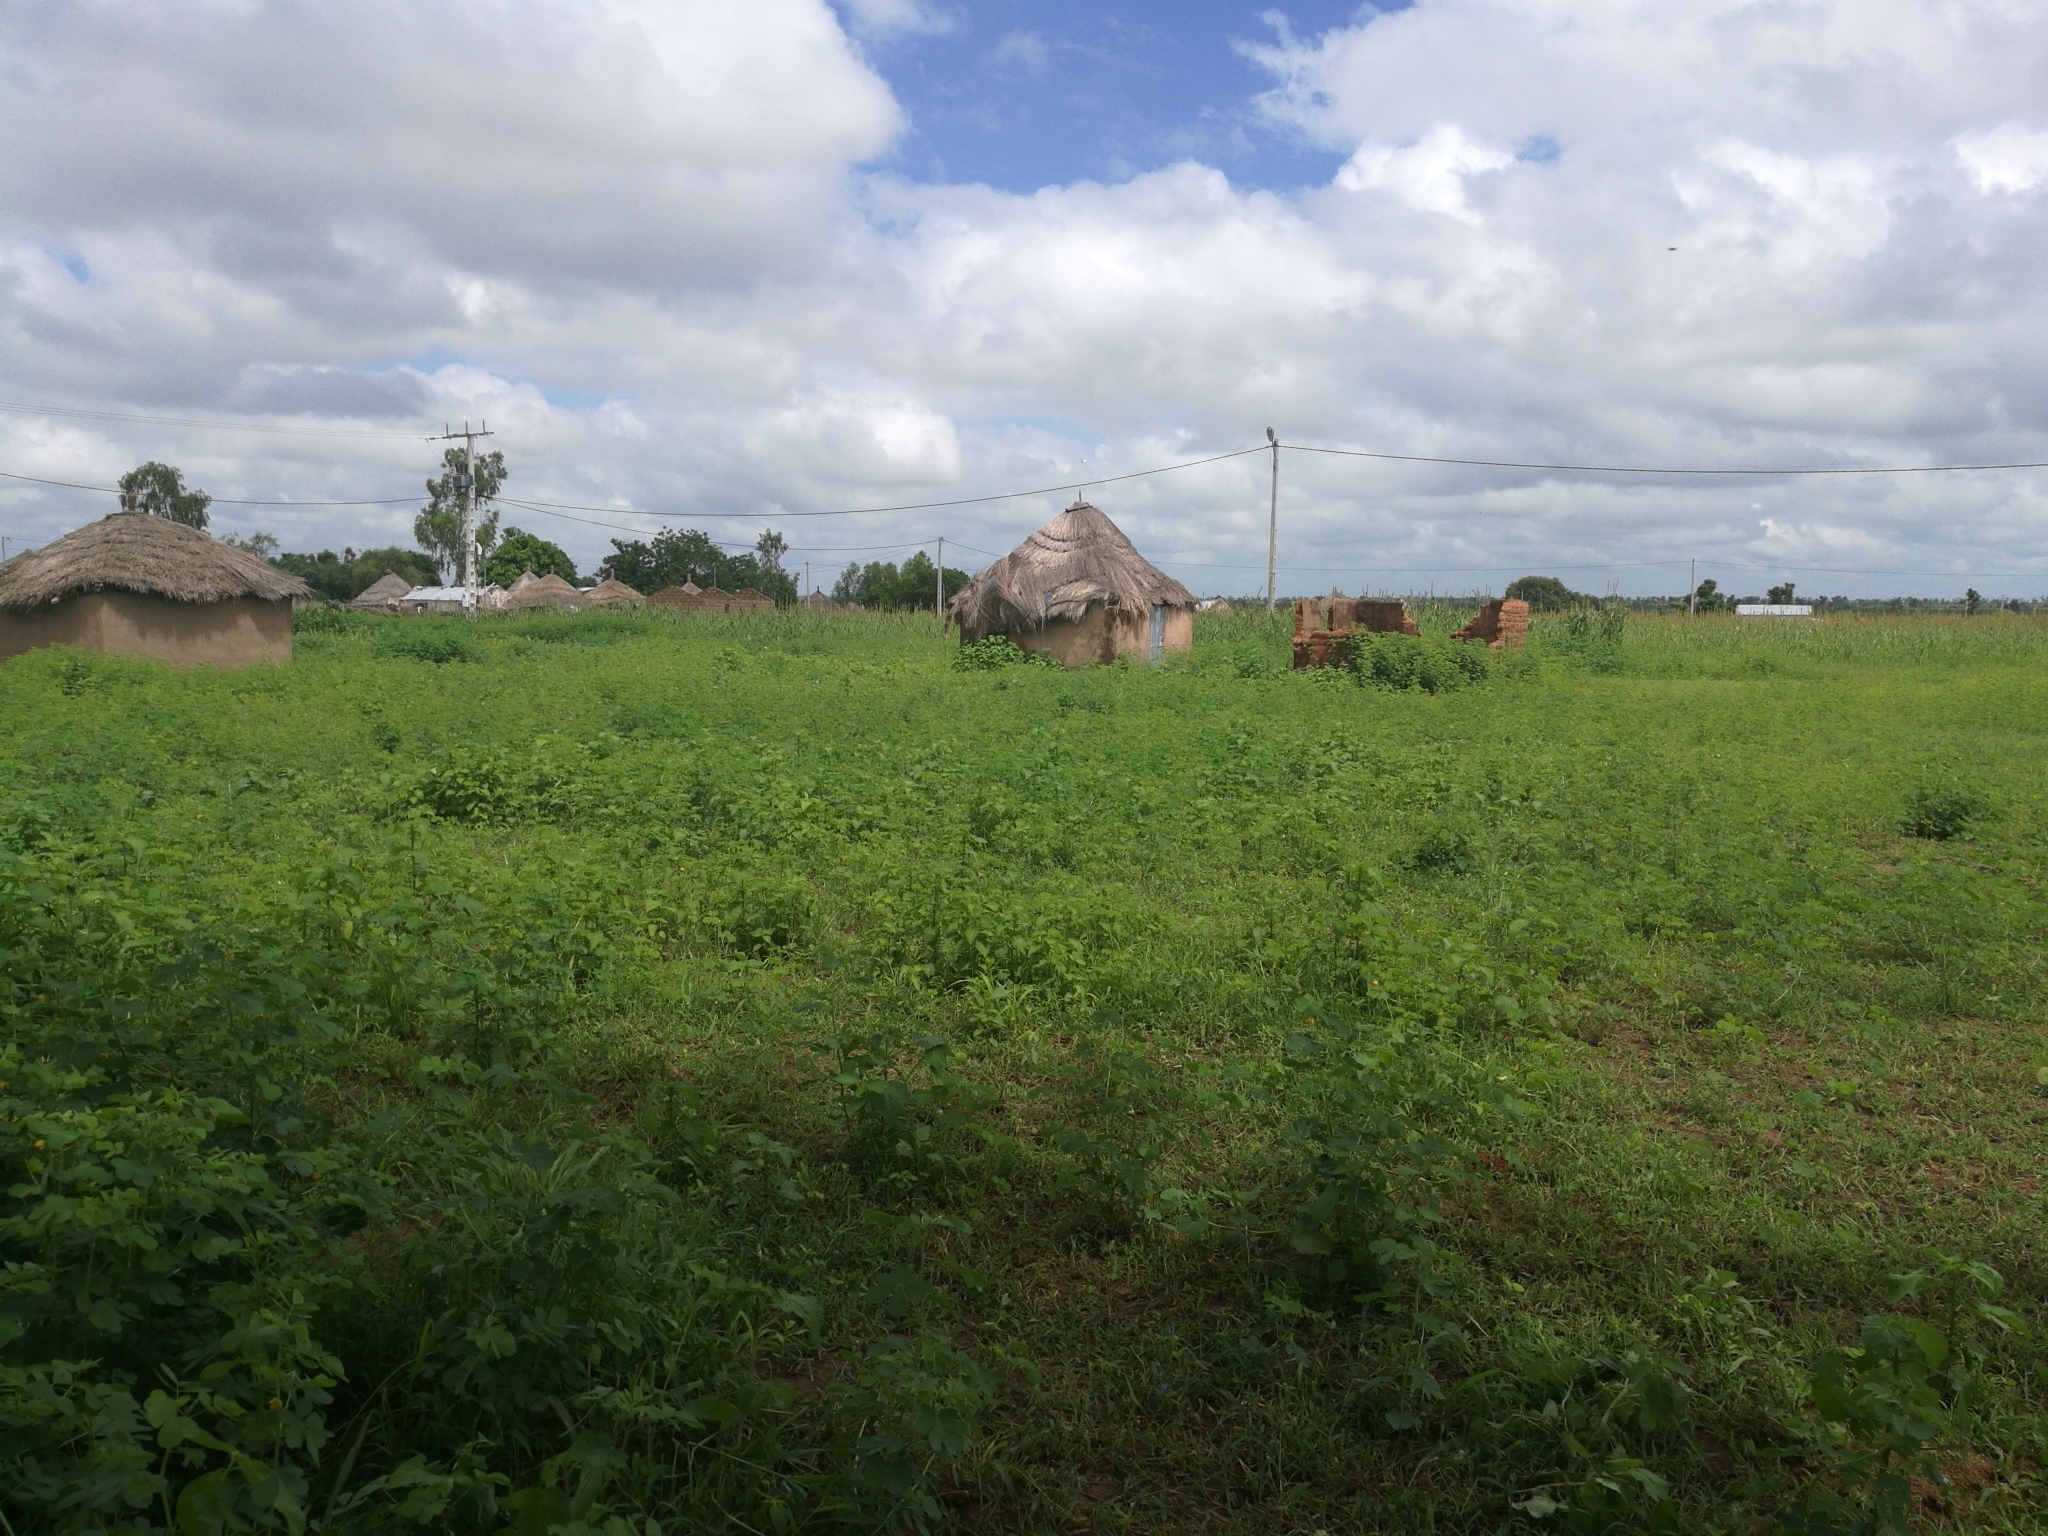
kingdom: Animalia
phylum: Arthropoda
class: Insecta
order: Lepidoptera
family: Nymphalidae
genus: Vanessa
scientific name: Vanessa cardui
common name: Painted lady
